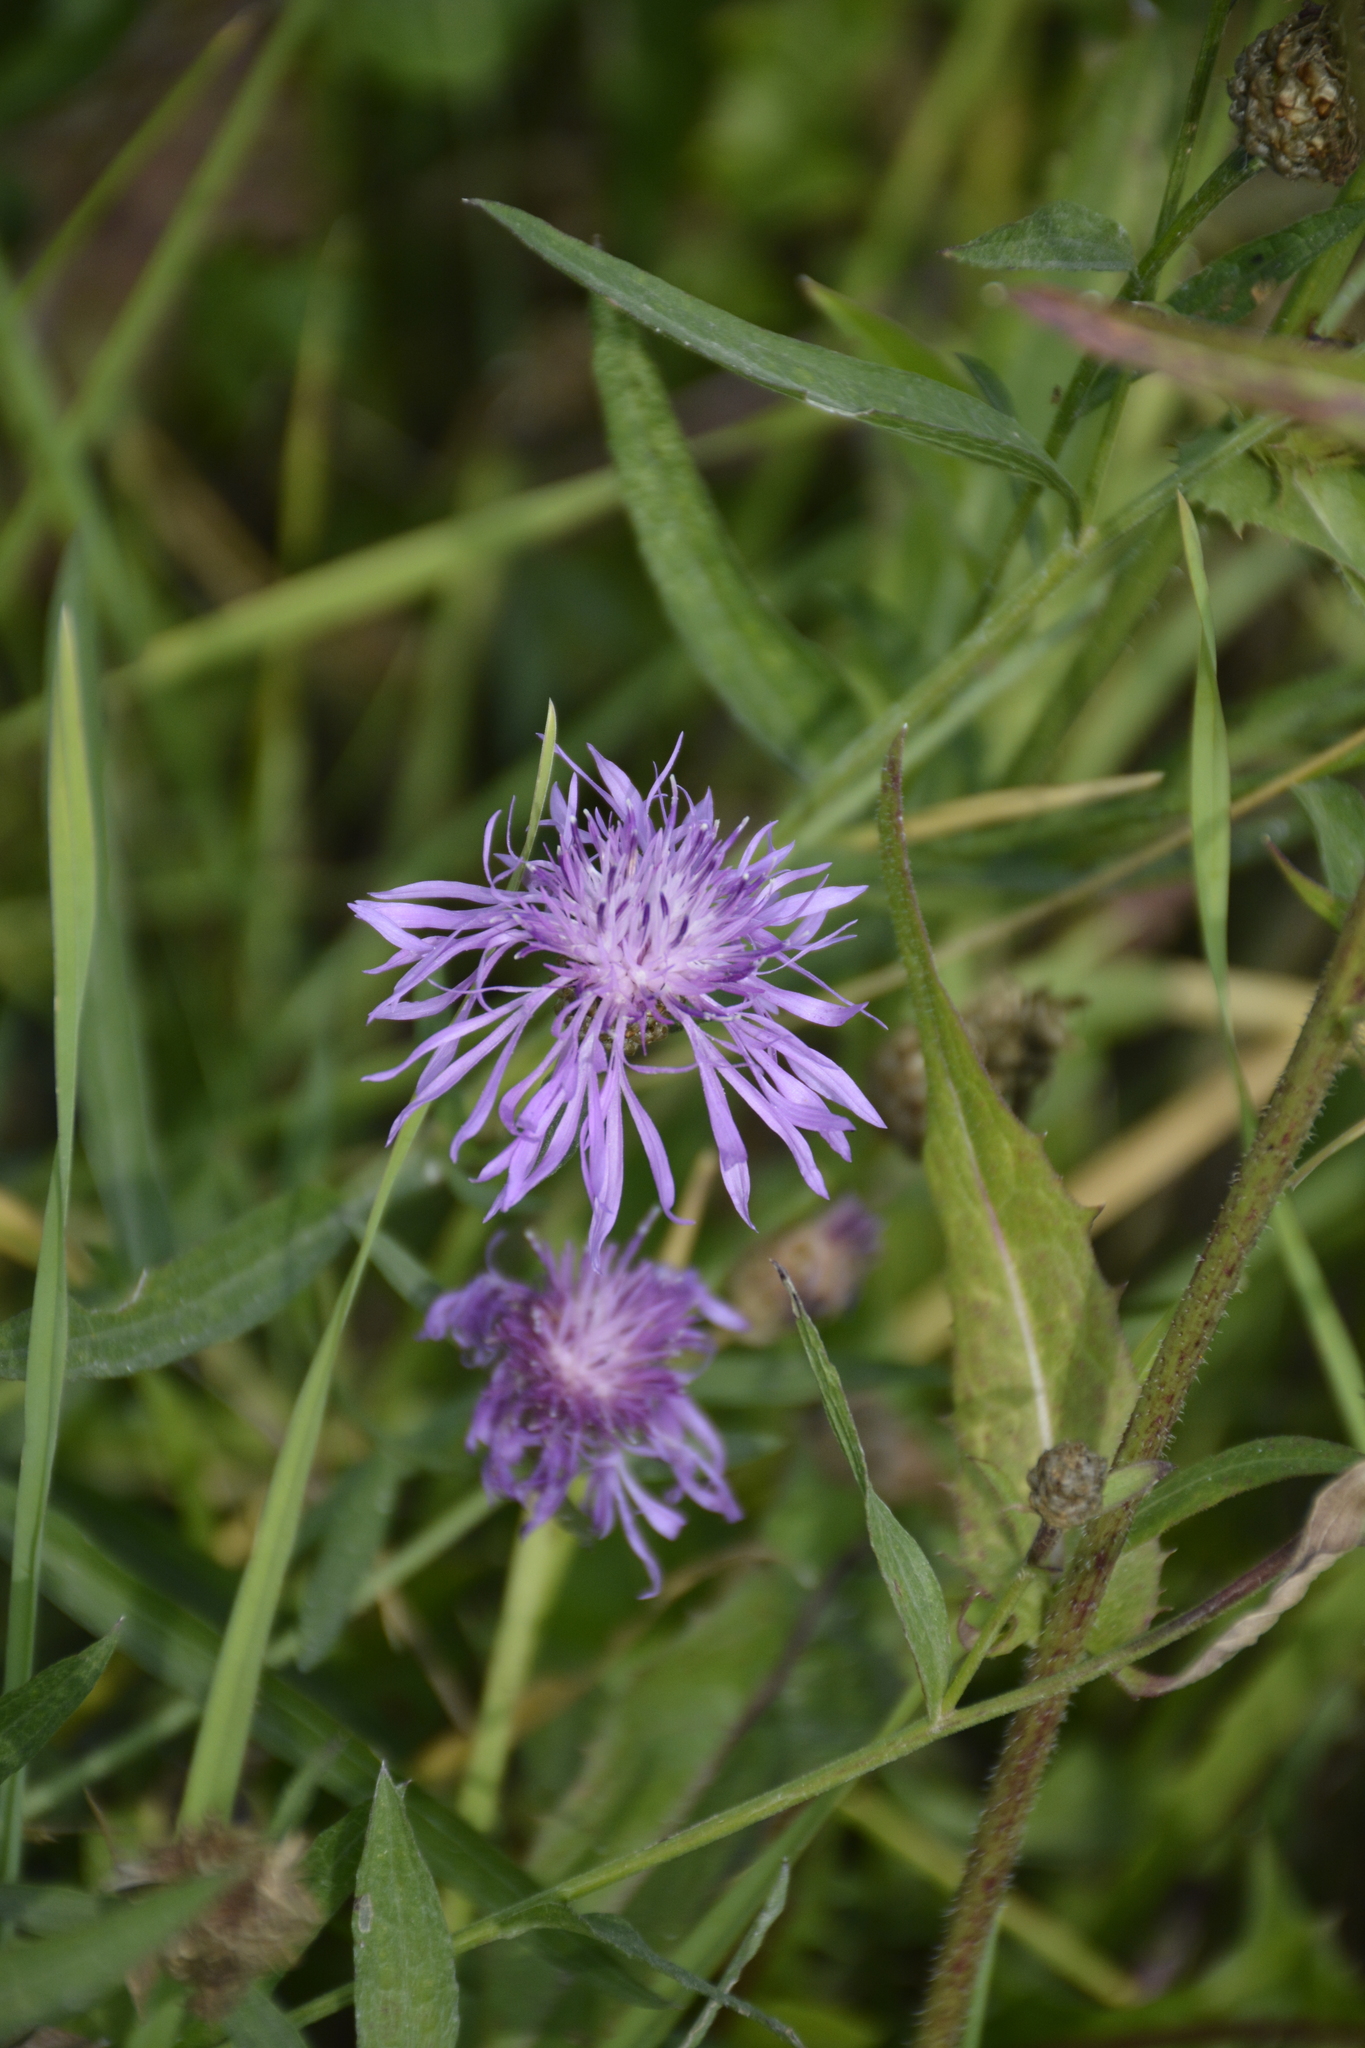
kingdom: Plantae
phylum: Tracheophyta
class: Magnoliopsida
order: Asterales
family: Asteraceae
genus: Centaurea
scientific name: Centaurea jacea
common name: Brown knapweed
